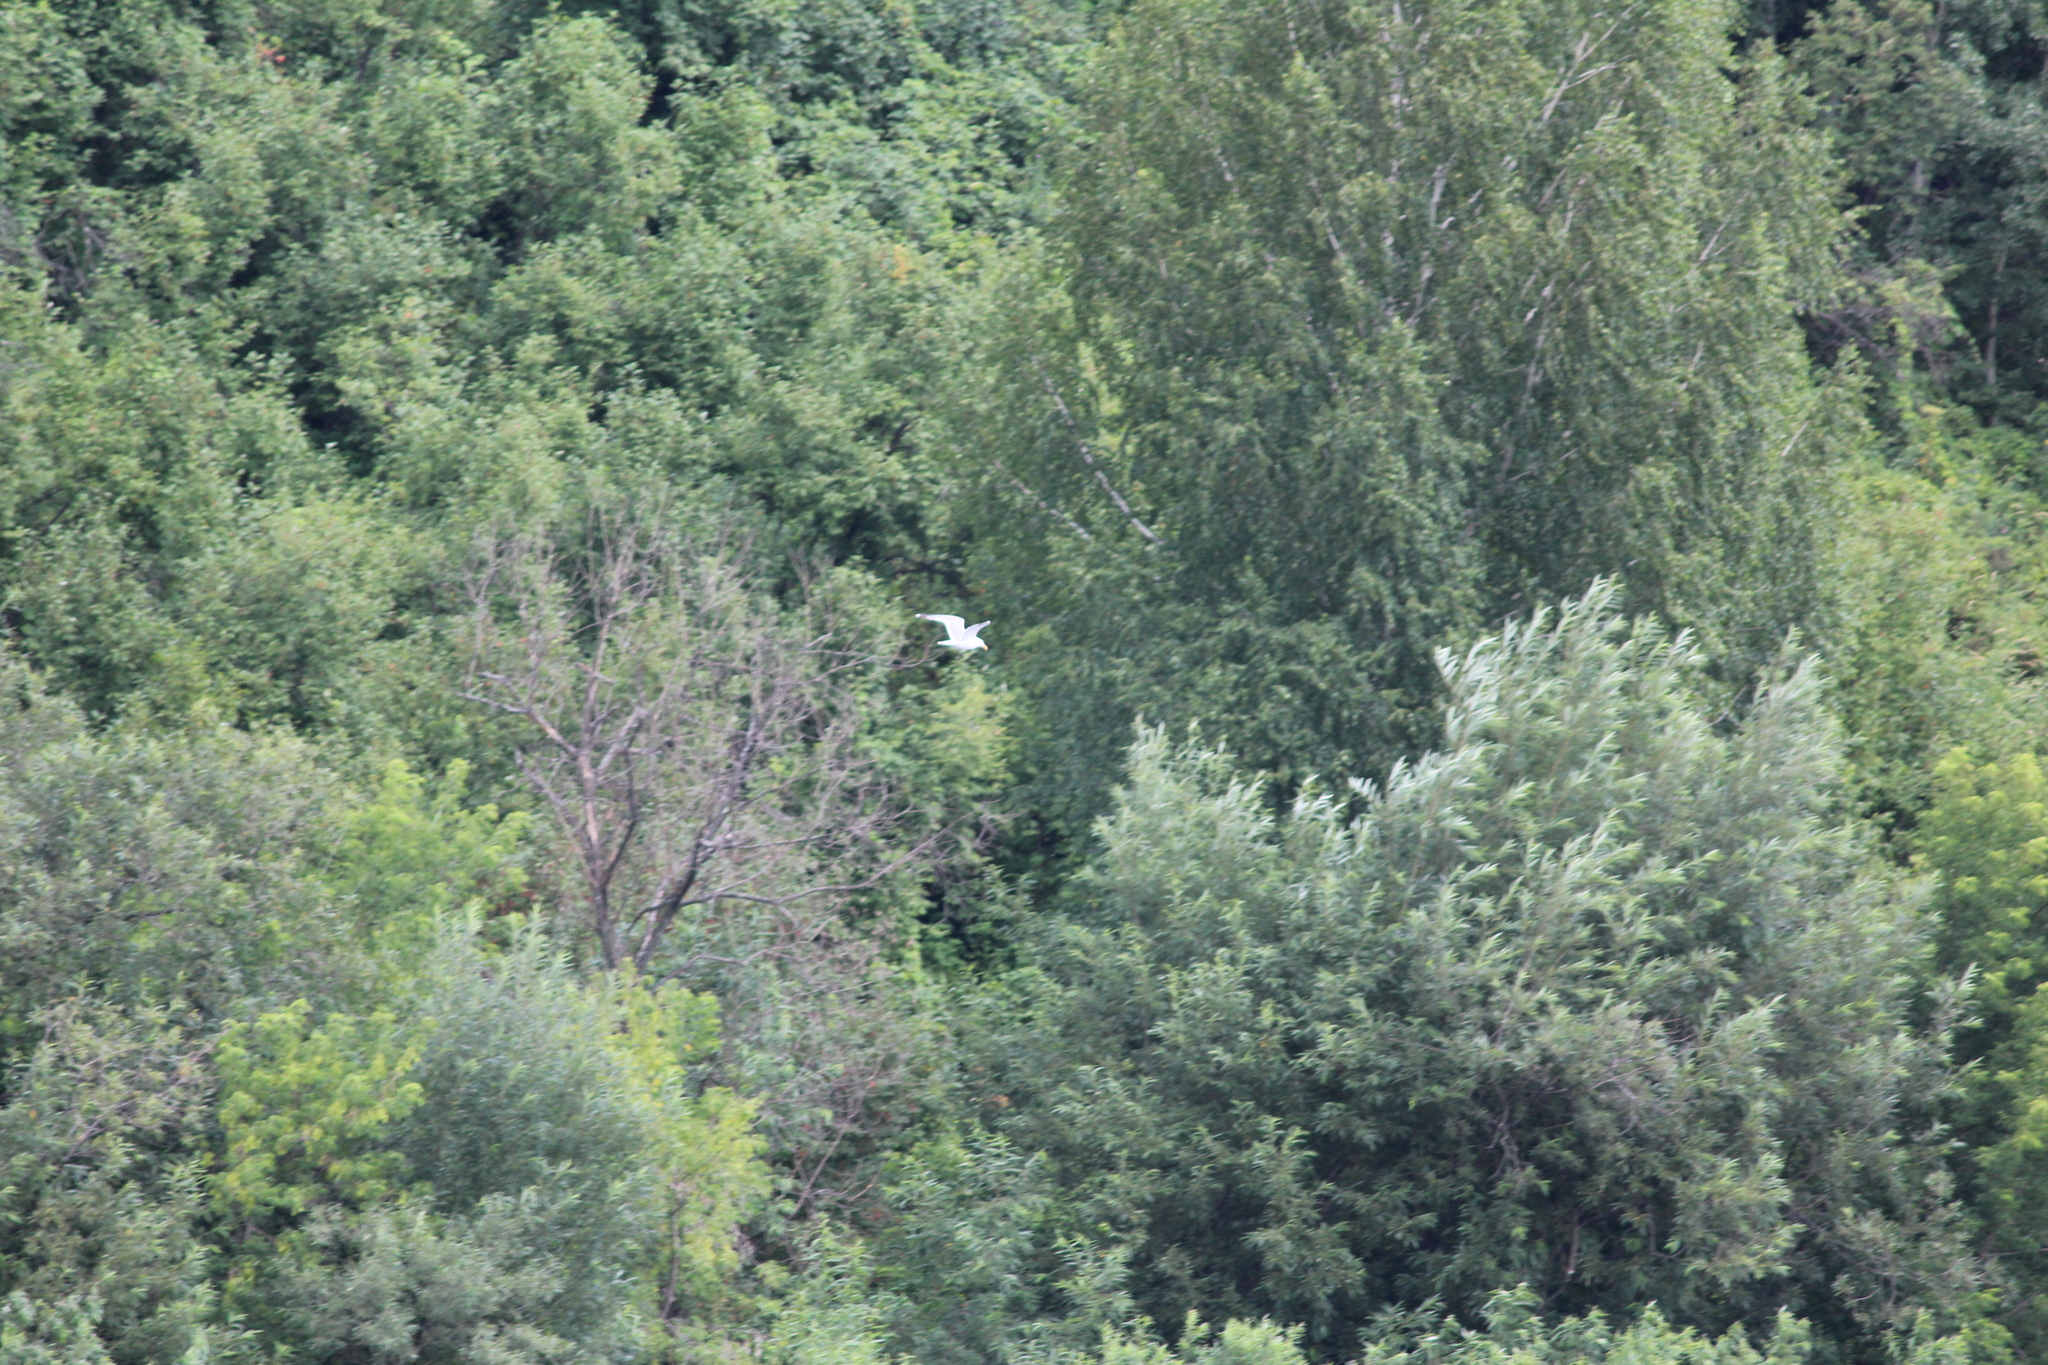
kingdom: Animalia
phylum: Chordata
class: Aves
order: Charadriiformes
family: Laridae
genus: Larus
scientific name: Larus fuscus
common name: Lesser black-backed gull
